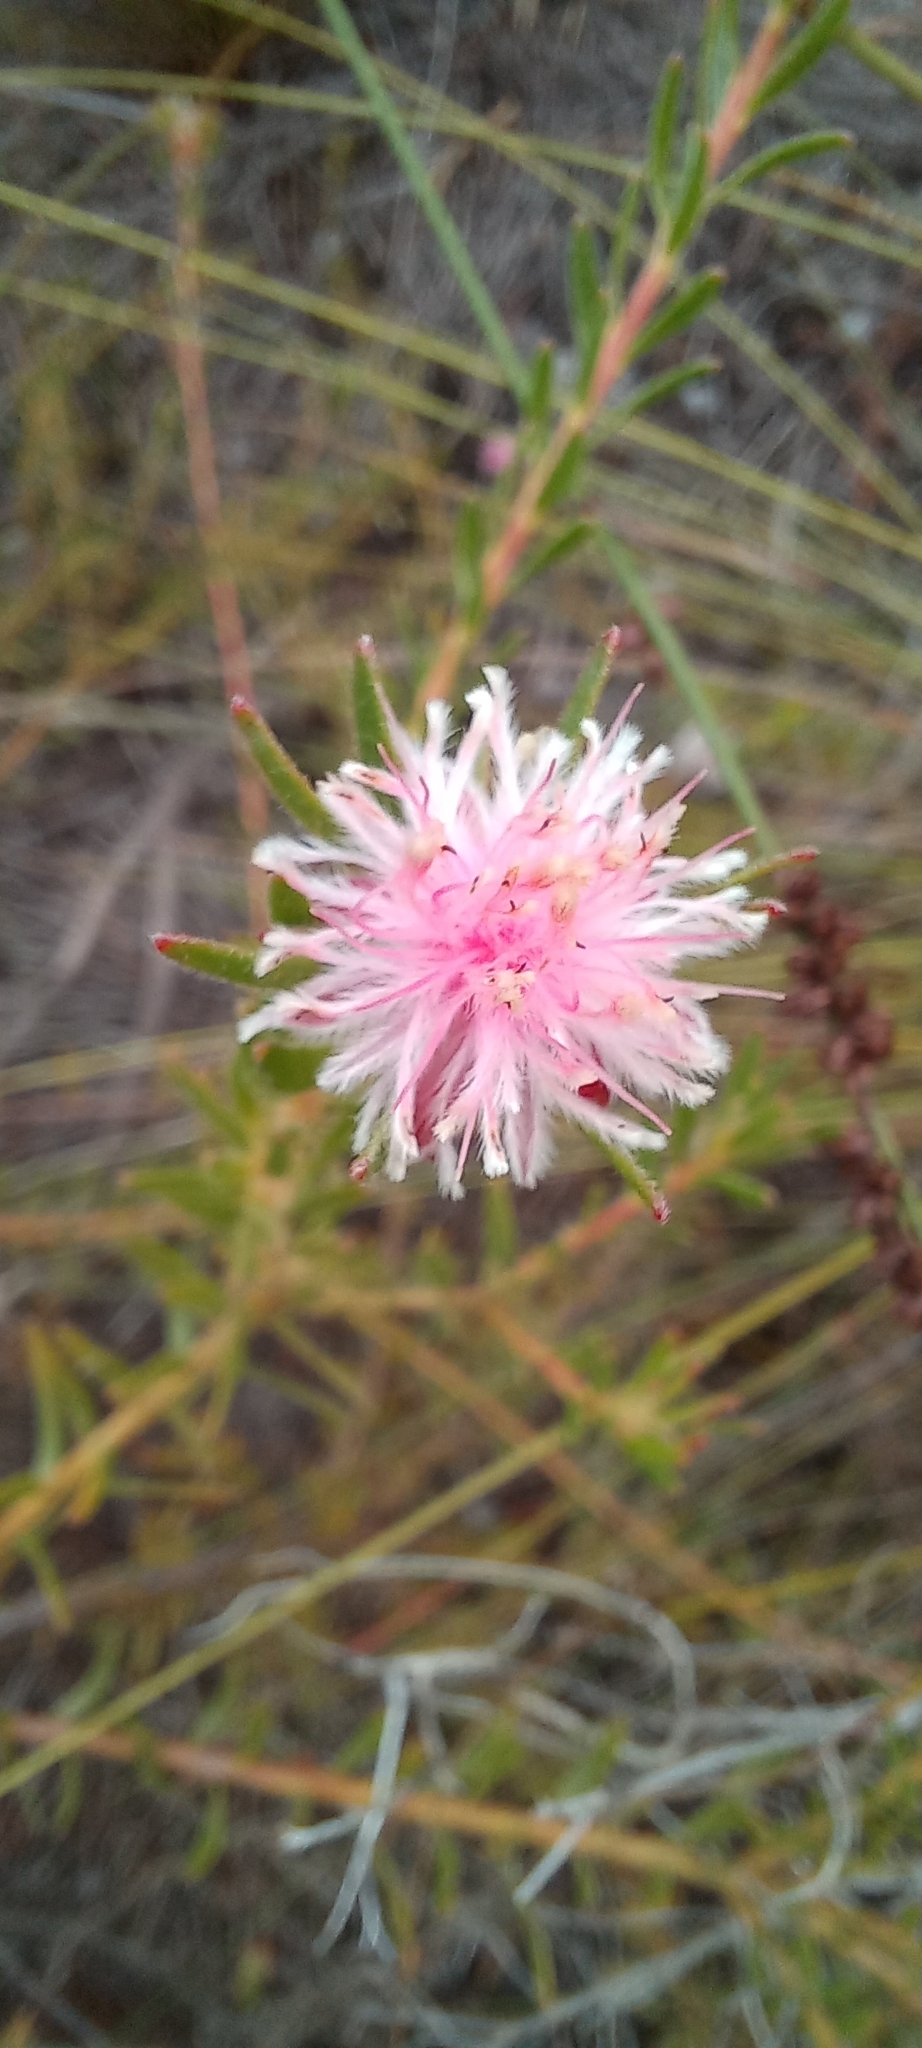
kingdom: Plantae
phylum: Tracheophyta
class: Magnoliopsida
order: Proteales
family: Proteaceae
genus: Diastella
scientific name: Diastella divaricata
